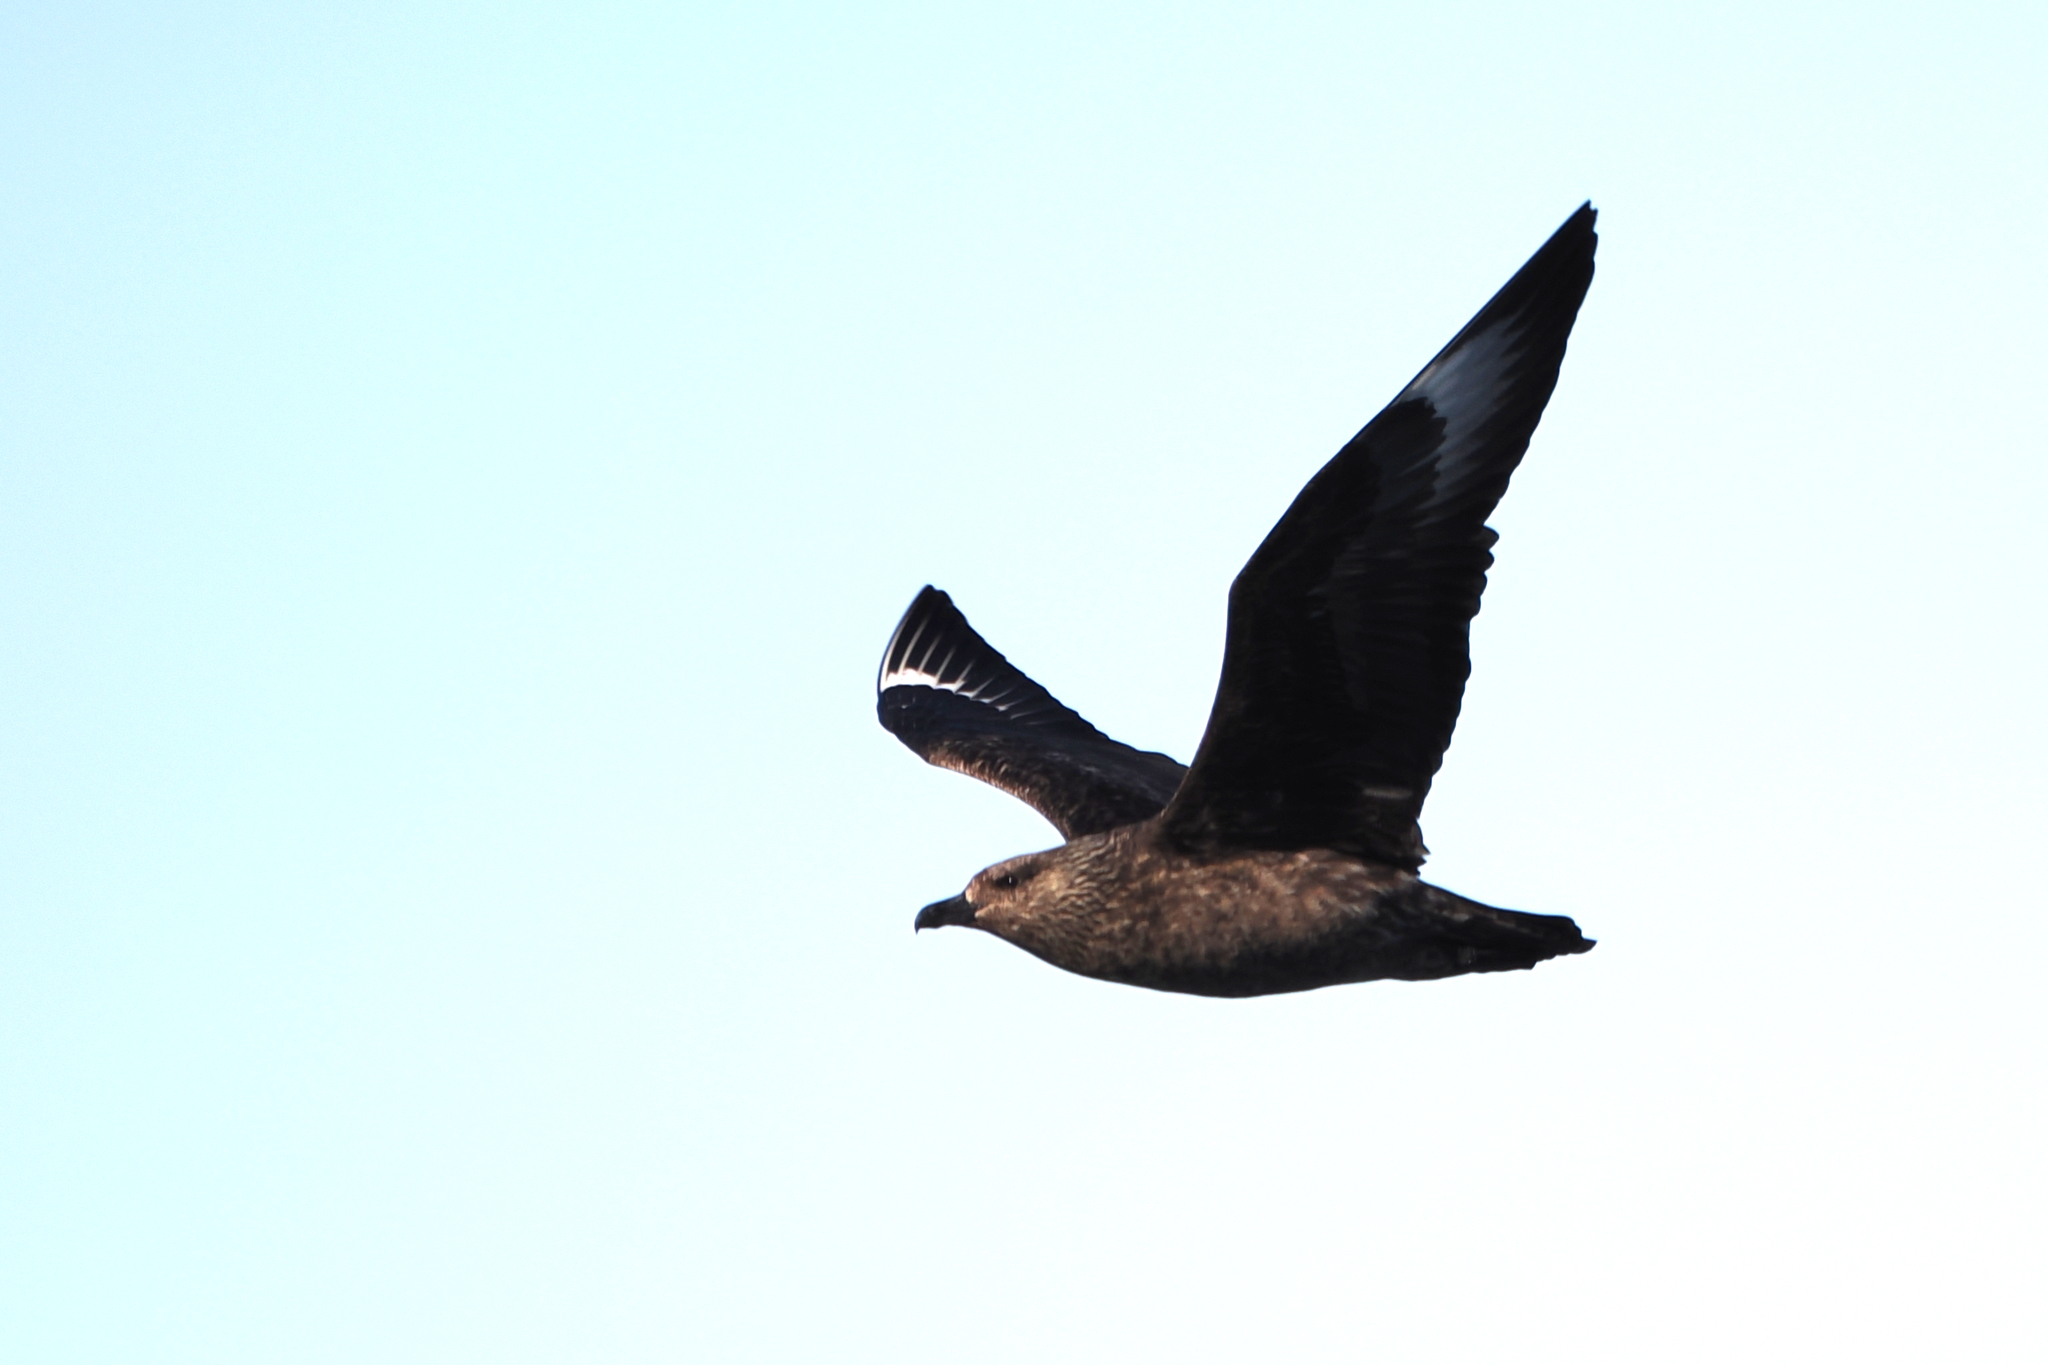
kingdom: Animalia
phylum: Chordata
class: Aves
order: Charadriiformes
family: Stercorariidae
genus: Stercorarius
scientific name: Stercorarius skua
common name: Great skua
